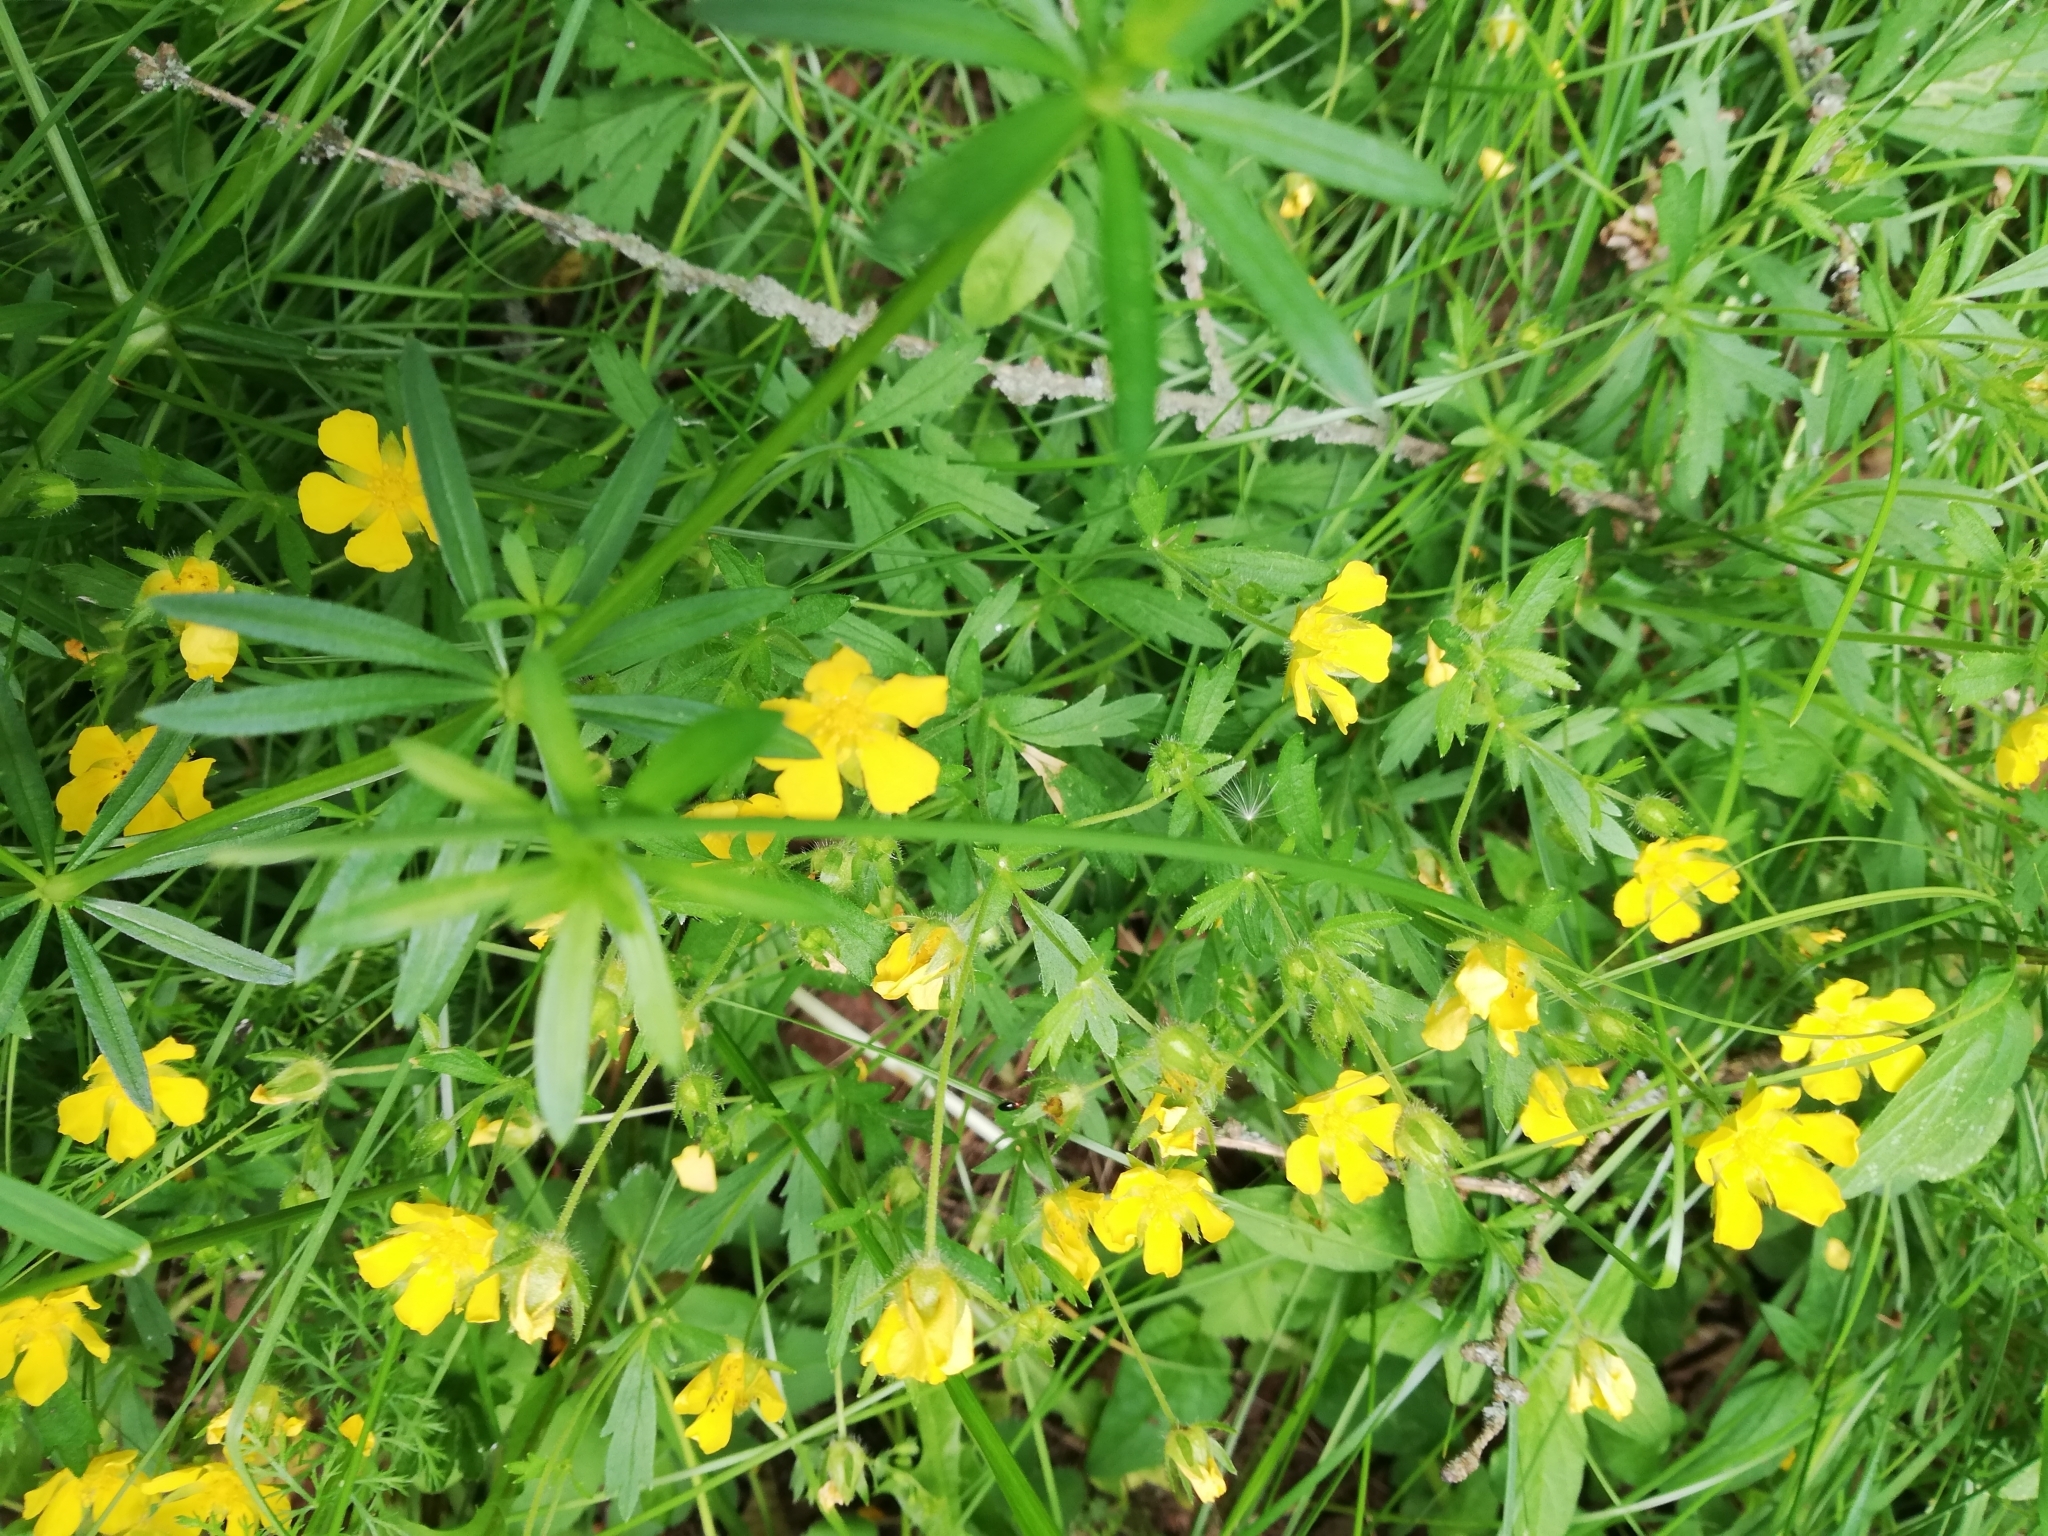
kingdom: Plantae
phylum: Tracheophyta
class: Magnoliopsida
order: Rosales
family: Rosaceae
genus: Potentilla
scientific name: Potentilla humifusa
